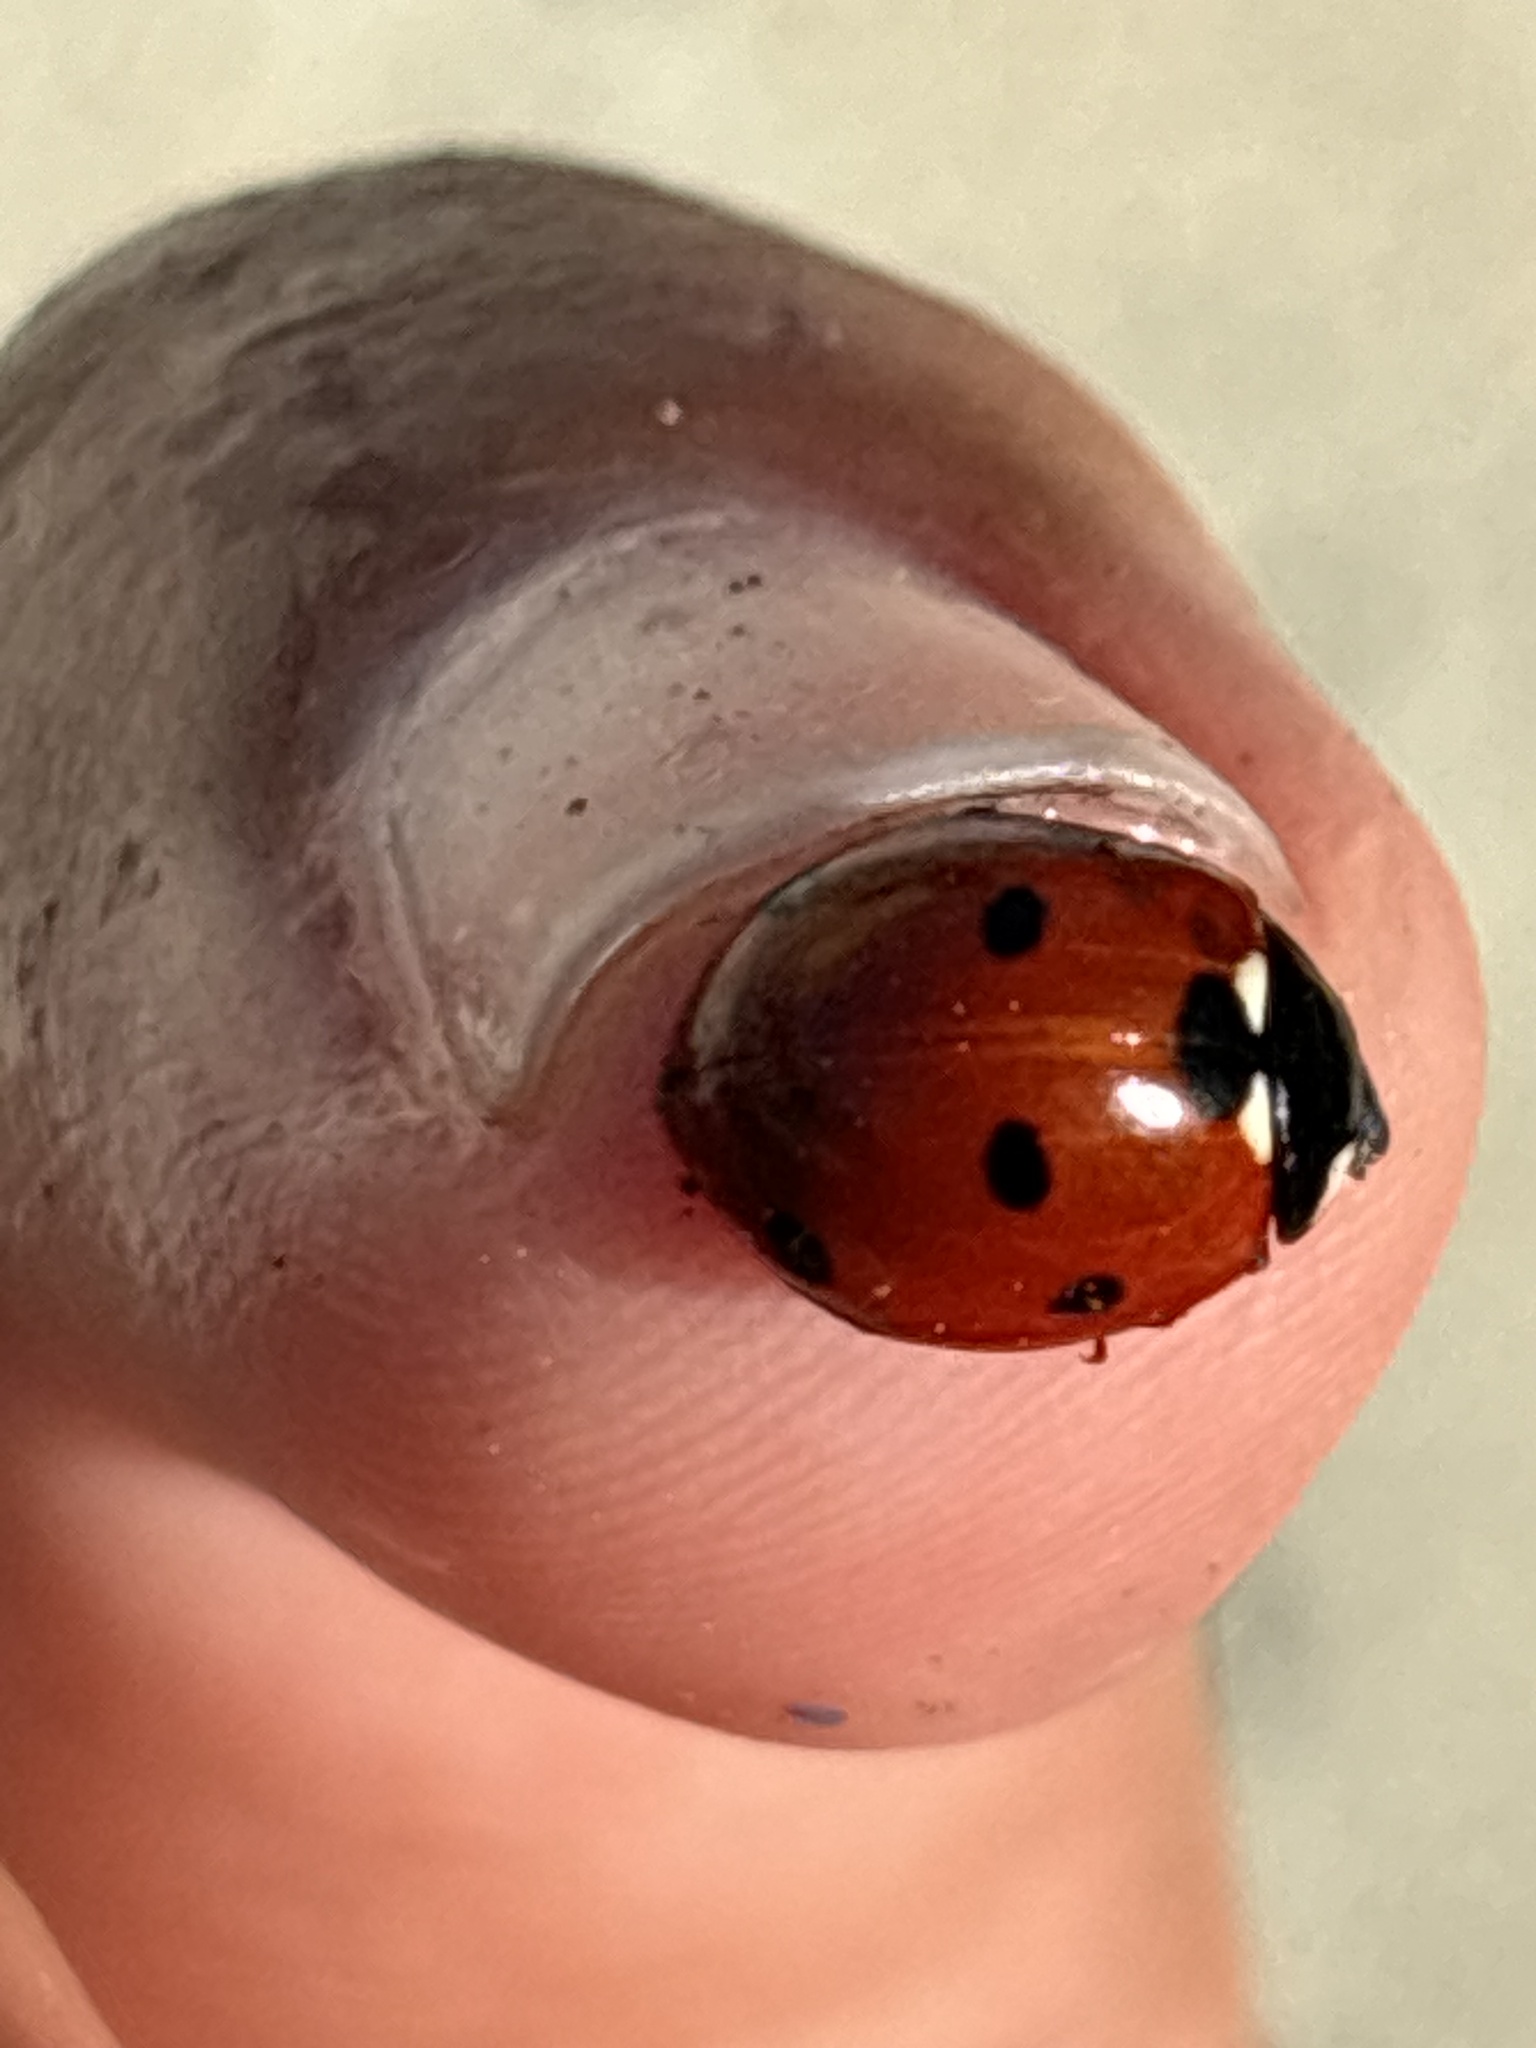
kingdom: Animalia
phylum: Arthropoda
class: Insecta
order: Coleoptera
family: Coccinellidae
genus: Coccinella
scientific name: Coccinella septempunctata
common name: Sevenspotted lady beetle
